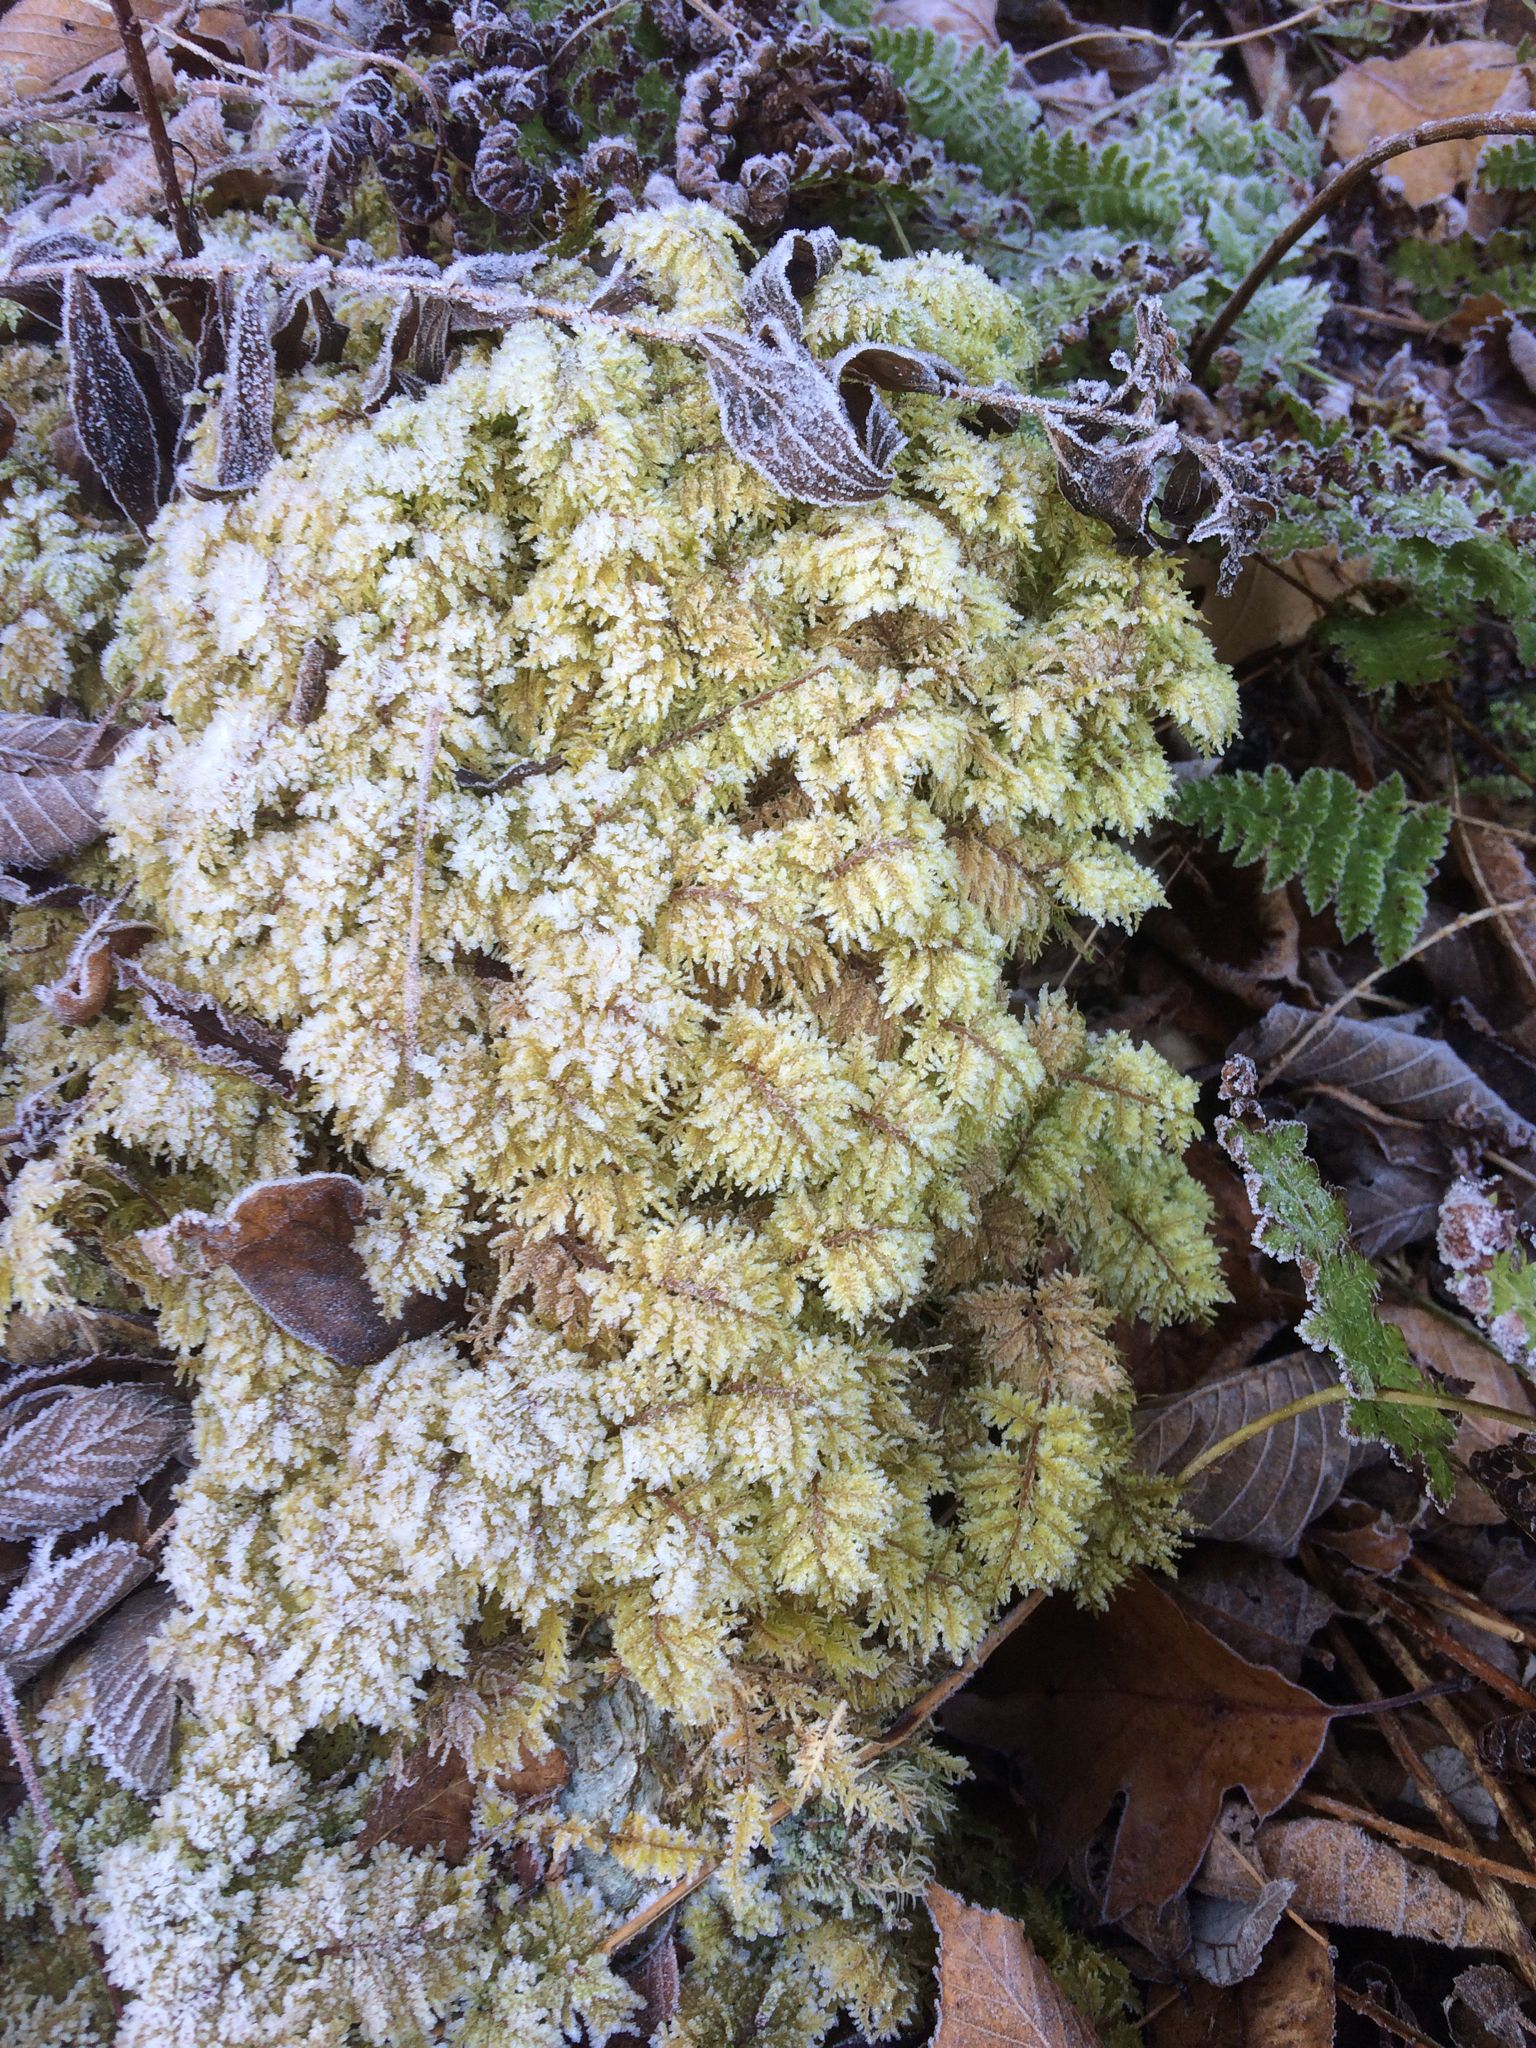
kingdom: Plantae
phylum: Bryophyta
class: Bryopsida
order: Hypnales
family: Hylocomiaceae
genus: Hylocomium
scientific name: Hylocomium splendens
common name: Stairstep moss
